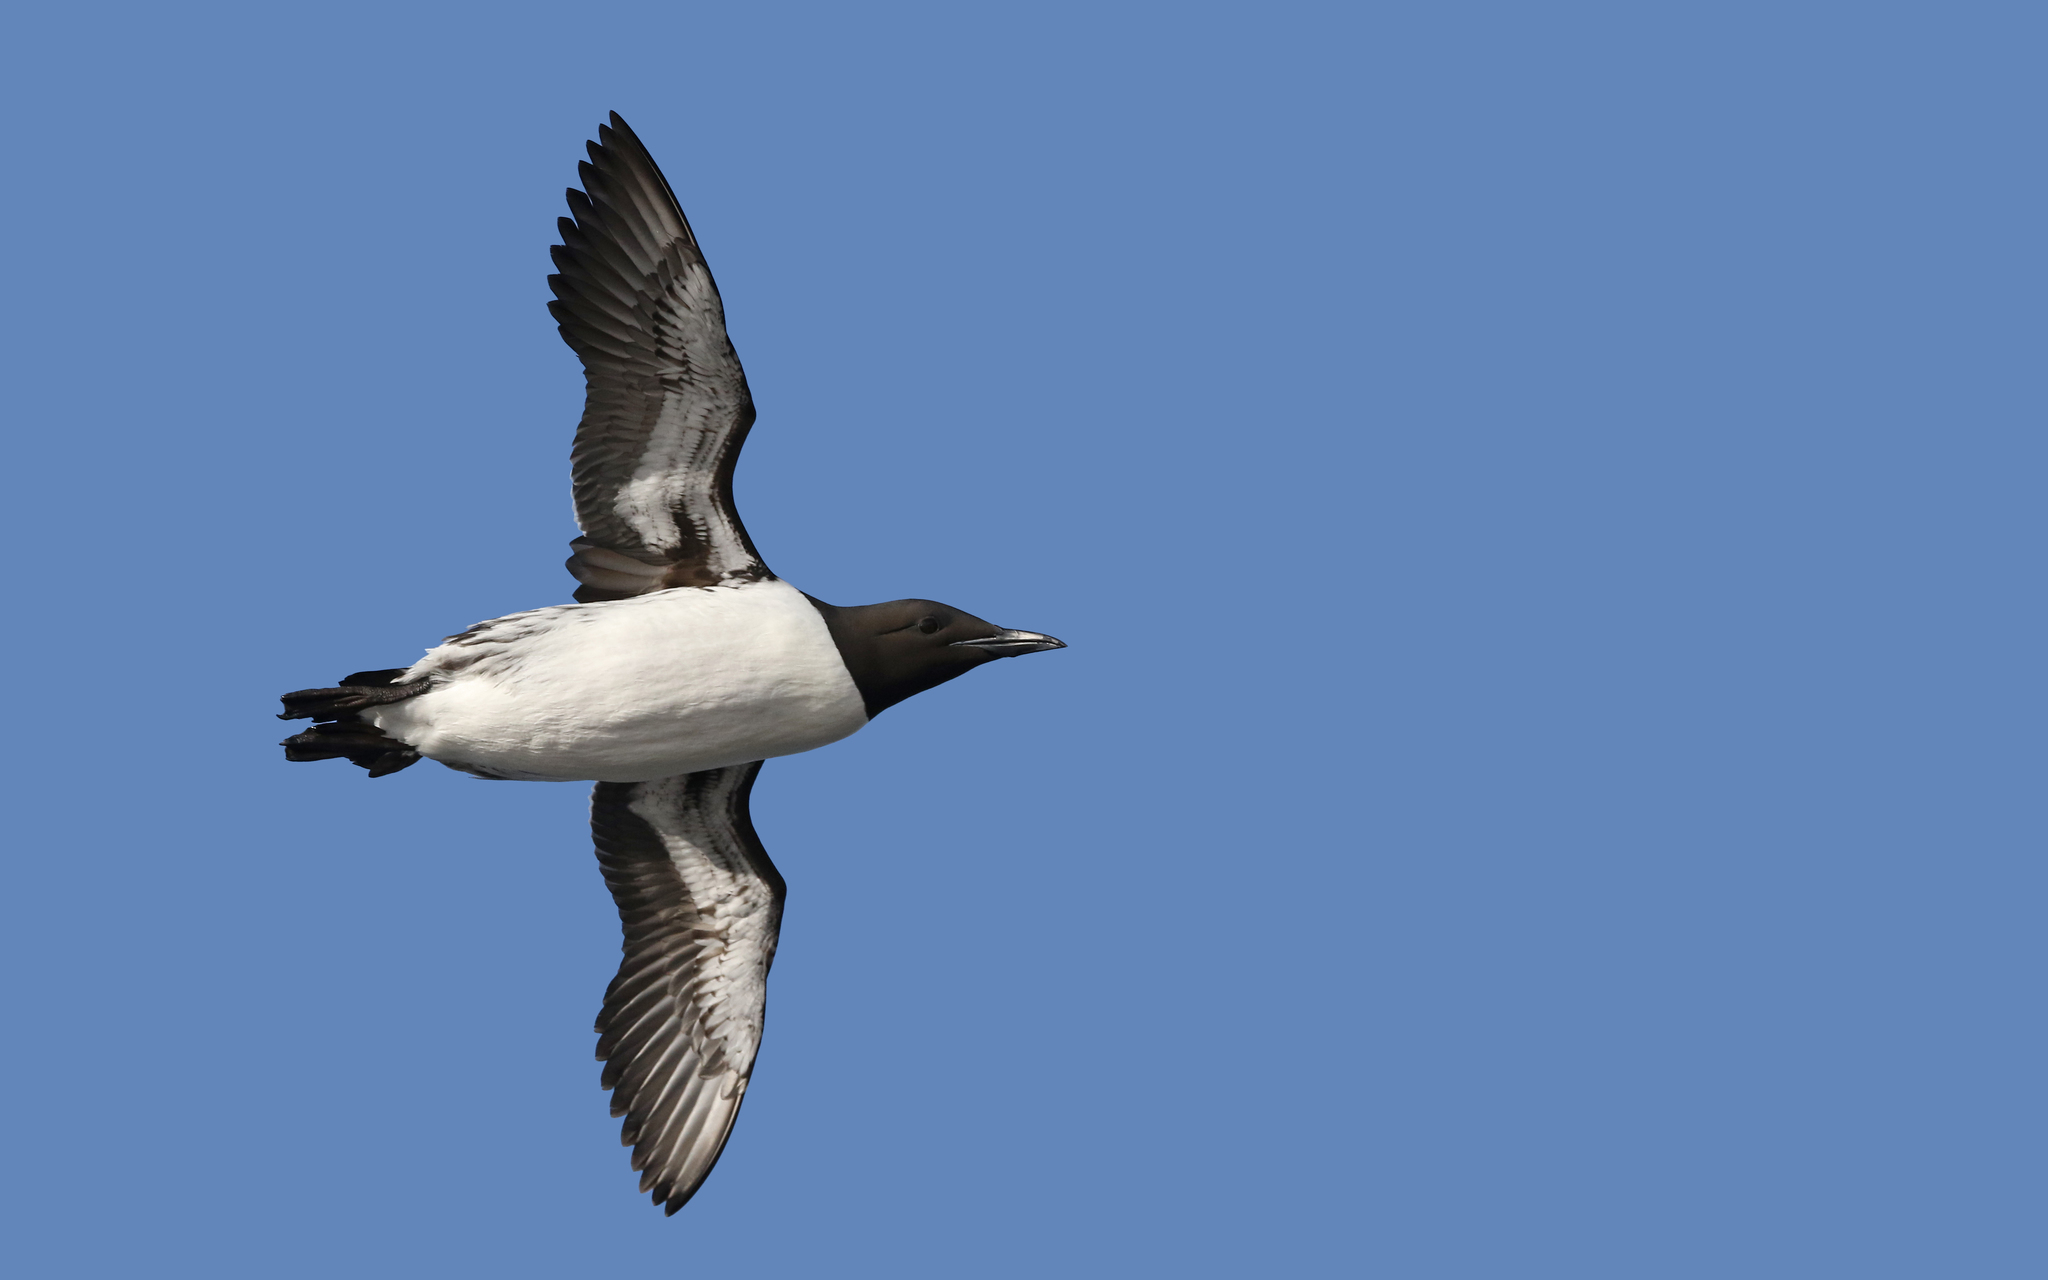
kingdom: Animalia
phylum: Chordata
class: Aves
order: Charadriiformes
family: Alcidae
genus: Uria
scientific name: Uria aalge
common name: Common murre
